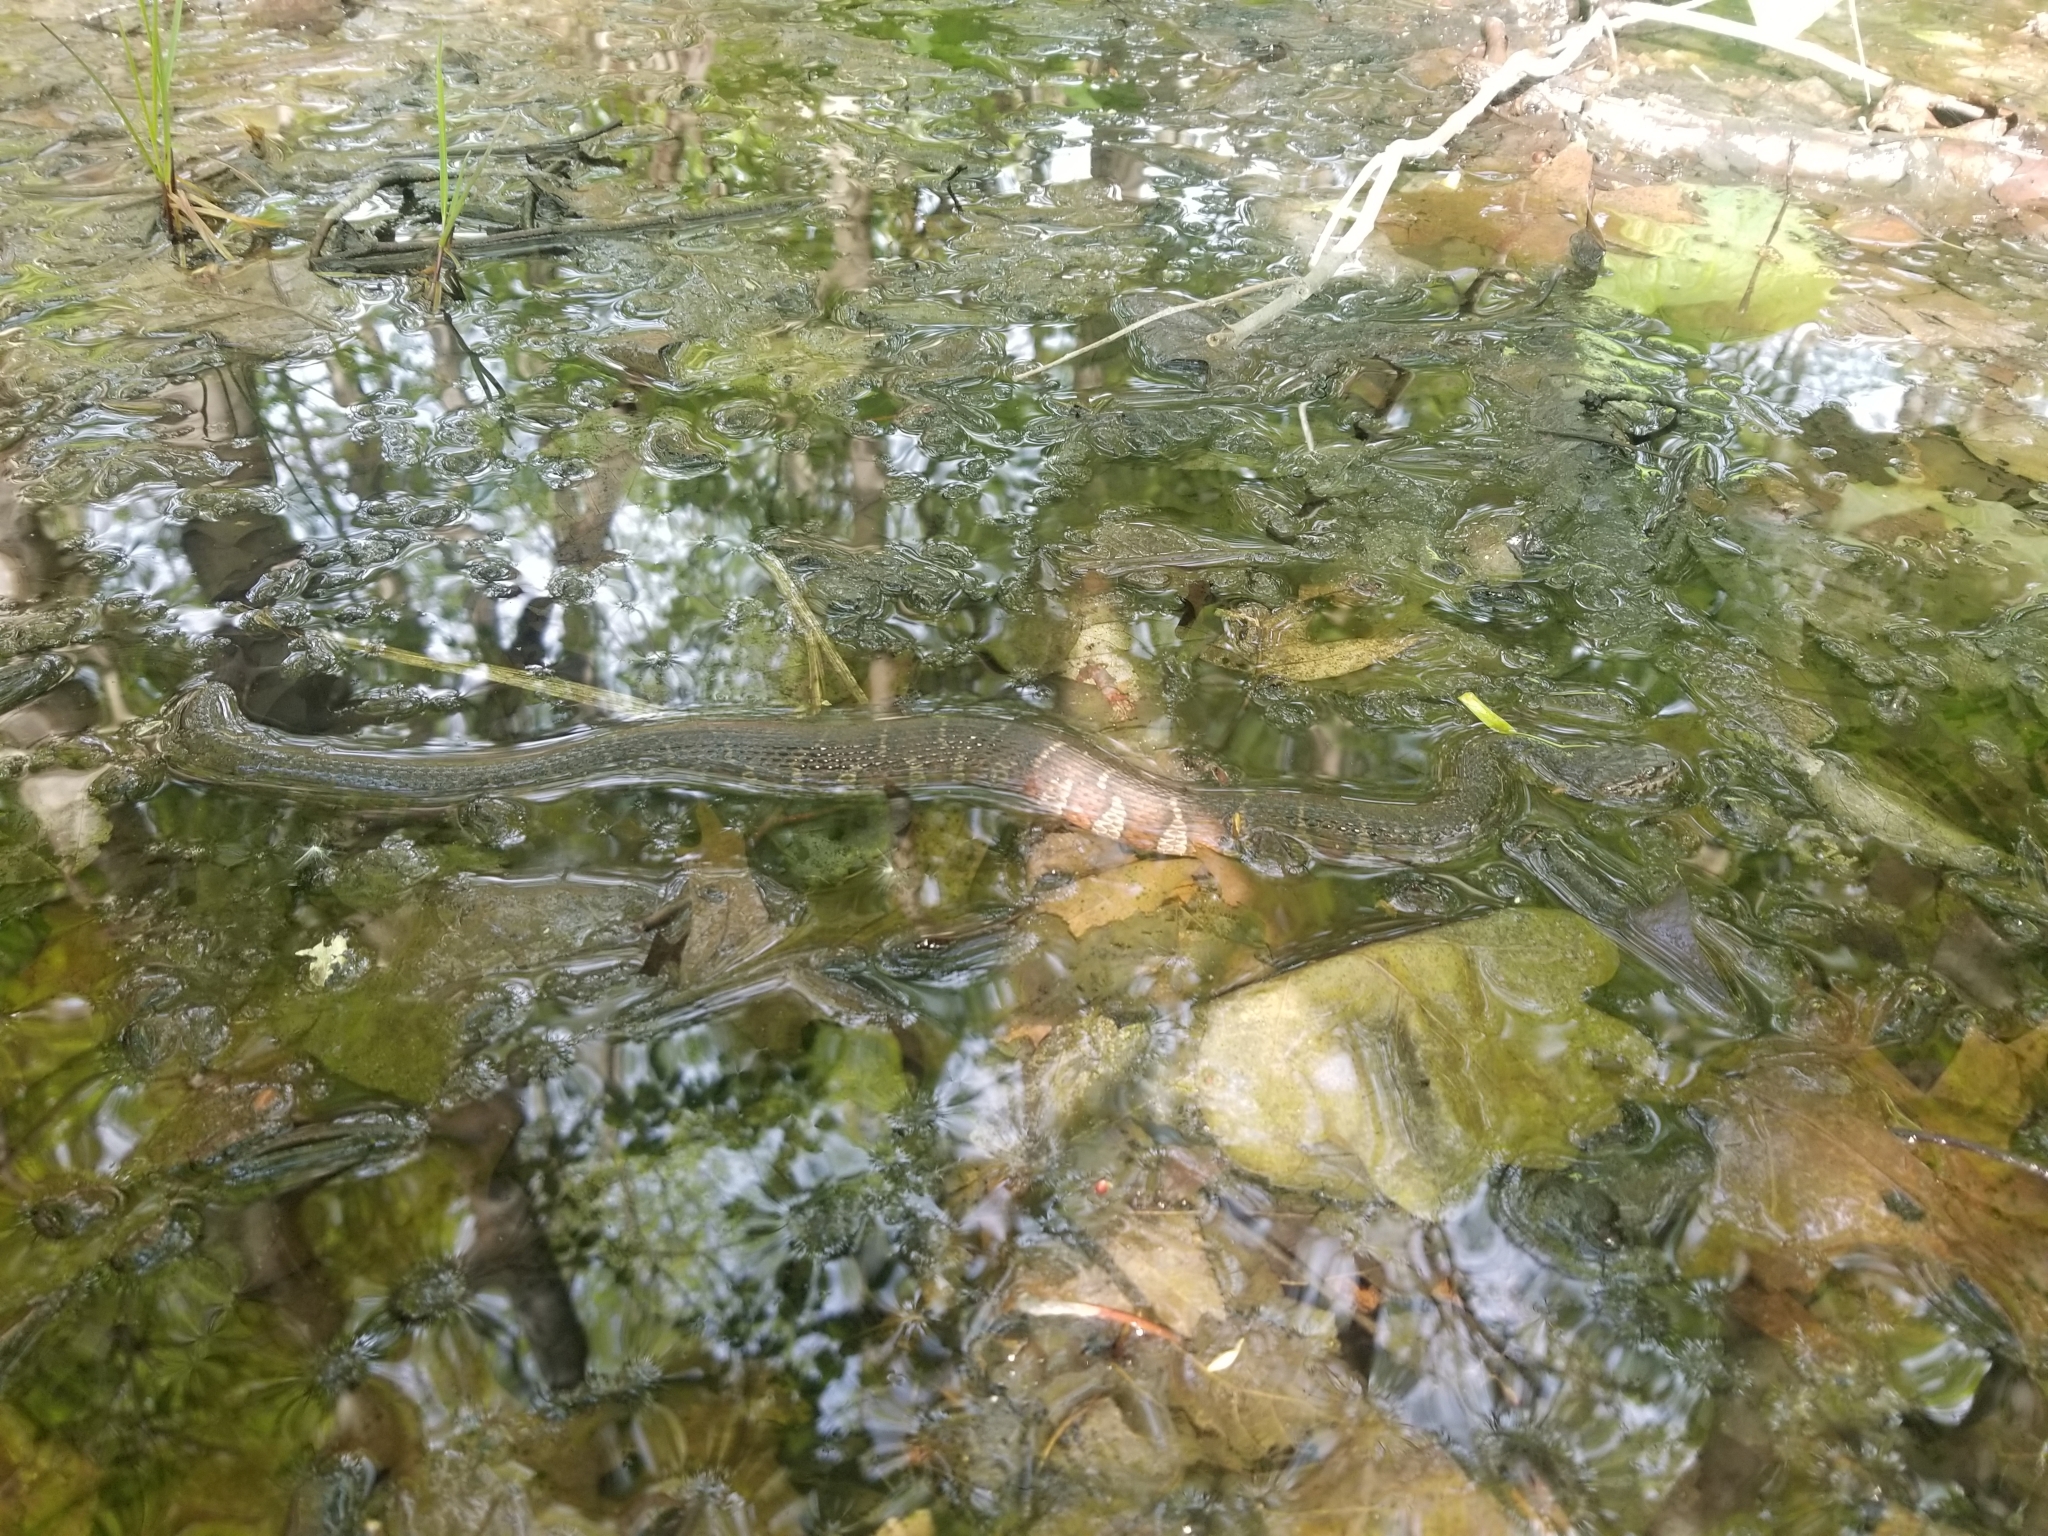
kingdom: Animalia
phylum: Chordata
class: Squamata
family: Colubridae
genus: Nerodia
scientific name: Nerodia sipedon
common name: Northern water snake
